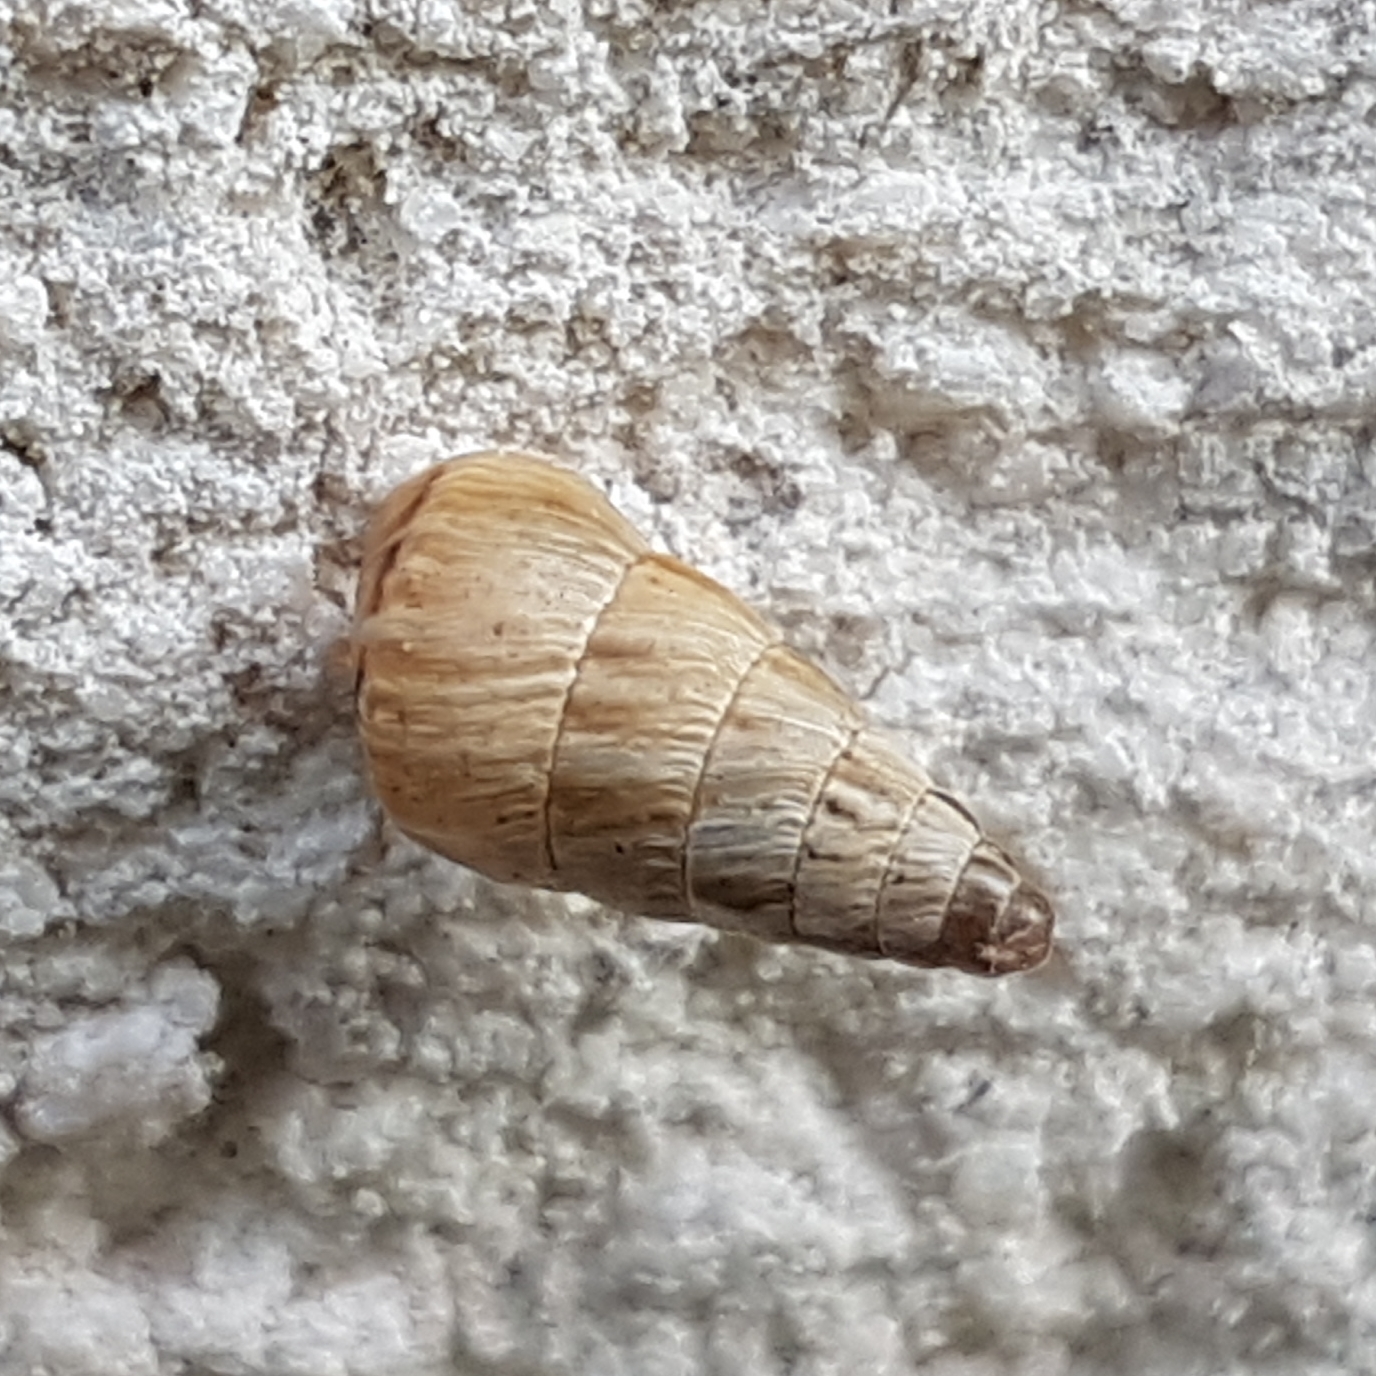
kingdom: Animalia
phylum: Mollusca
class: Gastropoda
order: Stylommatophora
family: Geomitridae
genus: Cochlicella
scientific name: Cochlicella acuta
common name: Pointed snail
